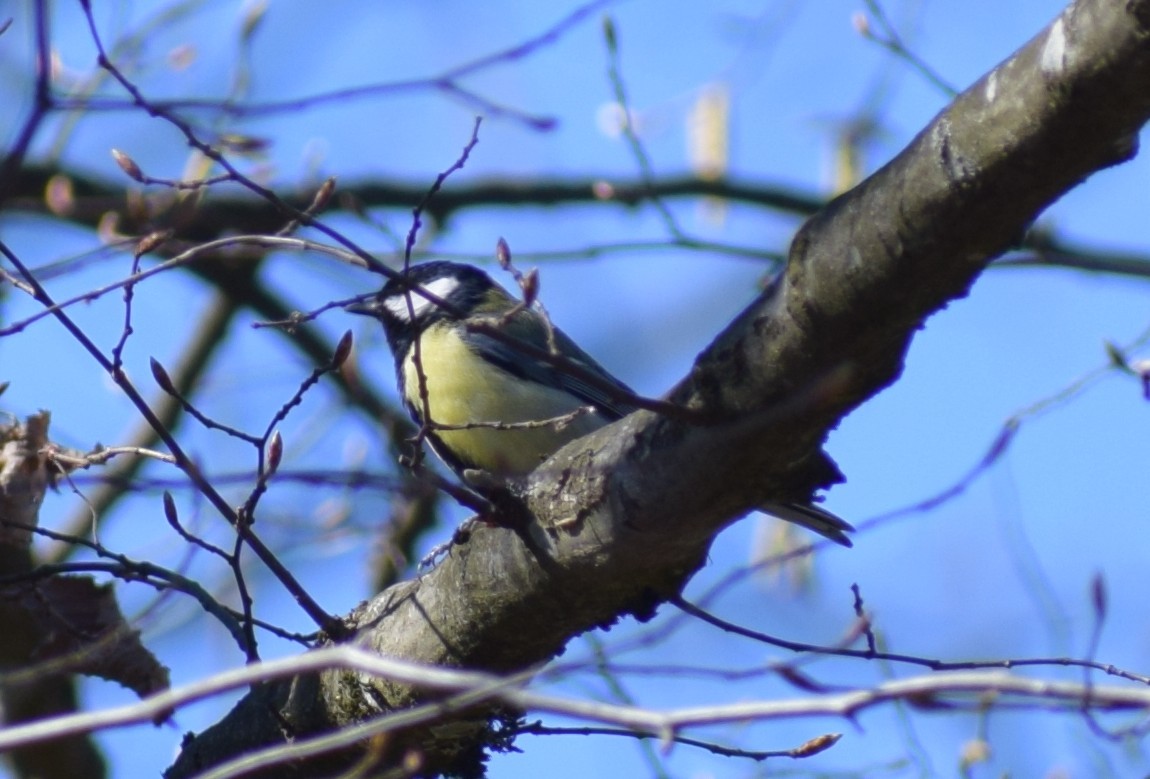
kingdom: Animalia
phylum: Chordata
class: Aves
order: Passeriformes
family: Paridae
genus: Parus
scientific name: Parus major
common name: Great tit
